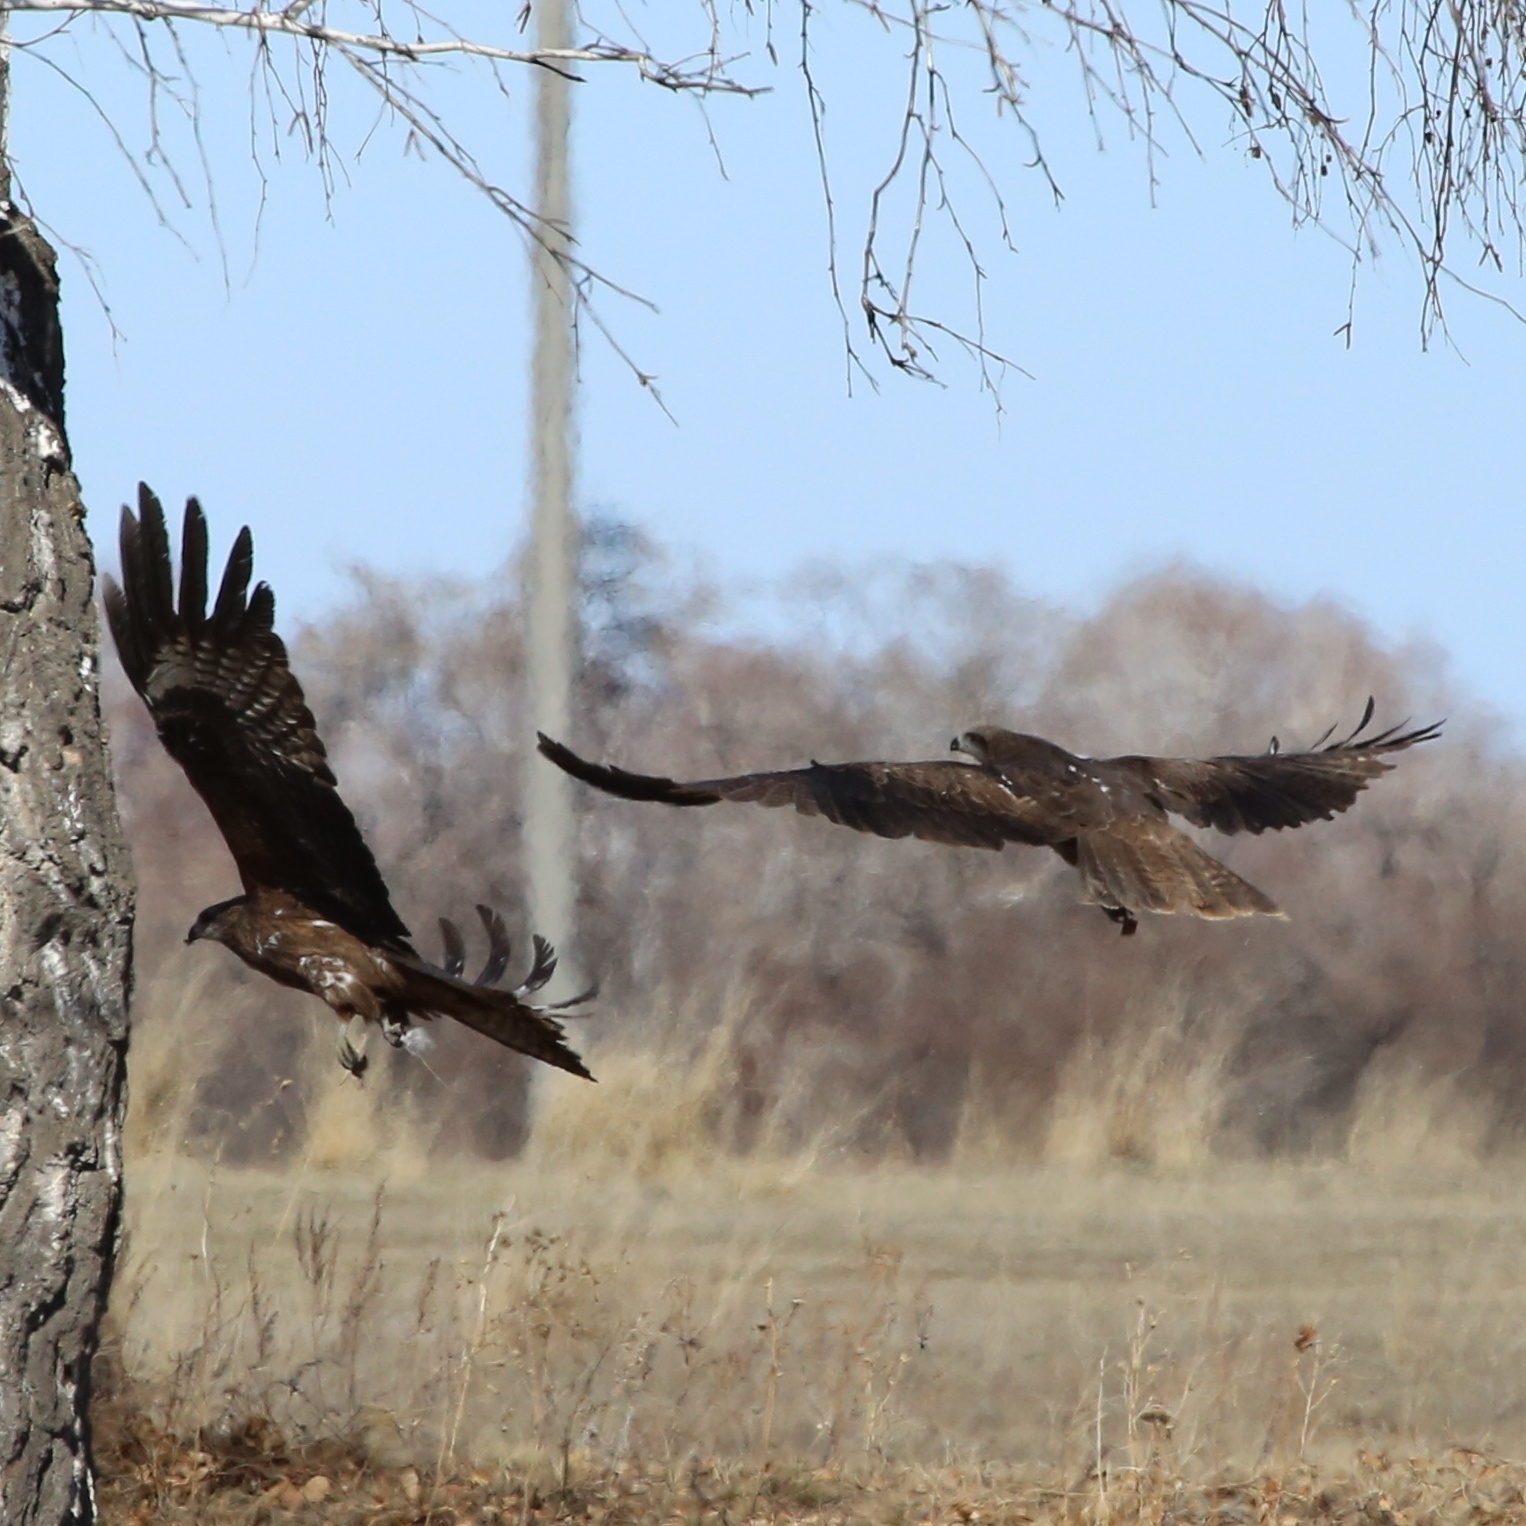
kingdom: Animalia
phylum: Chordata
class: Aves
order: Accipitriformes
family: Accipitridae
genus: Milvus
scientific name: Milvus migrans
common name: Black kite
